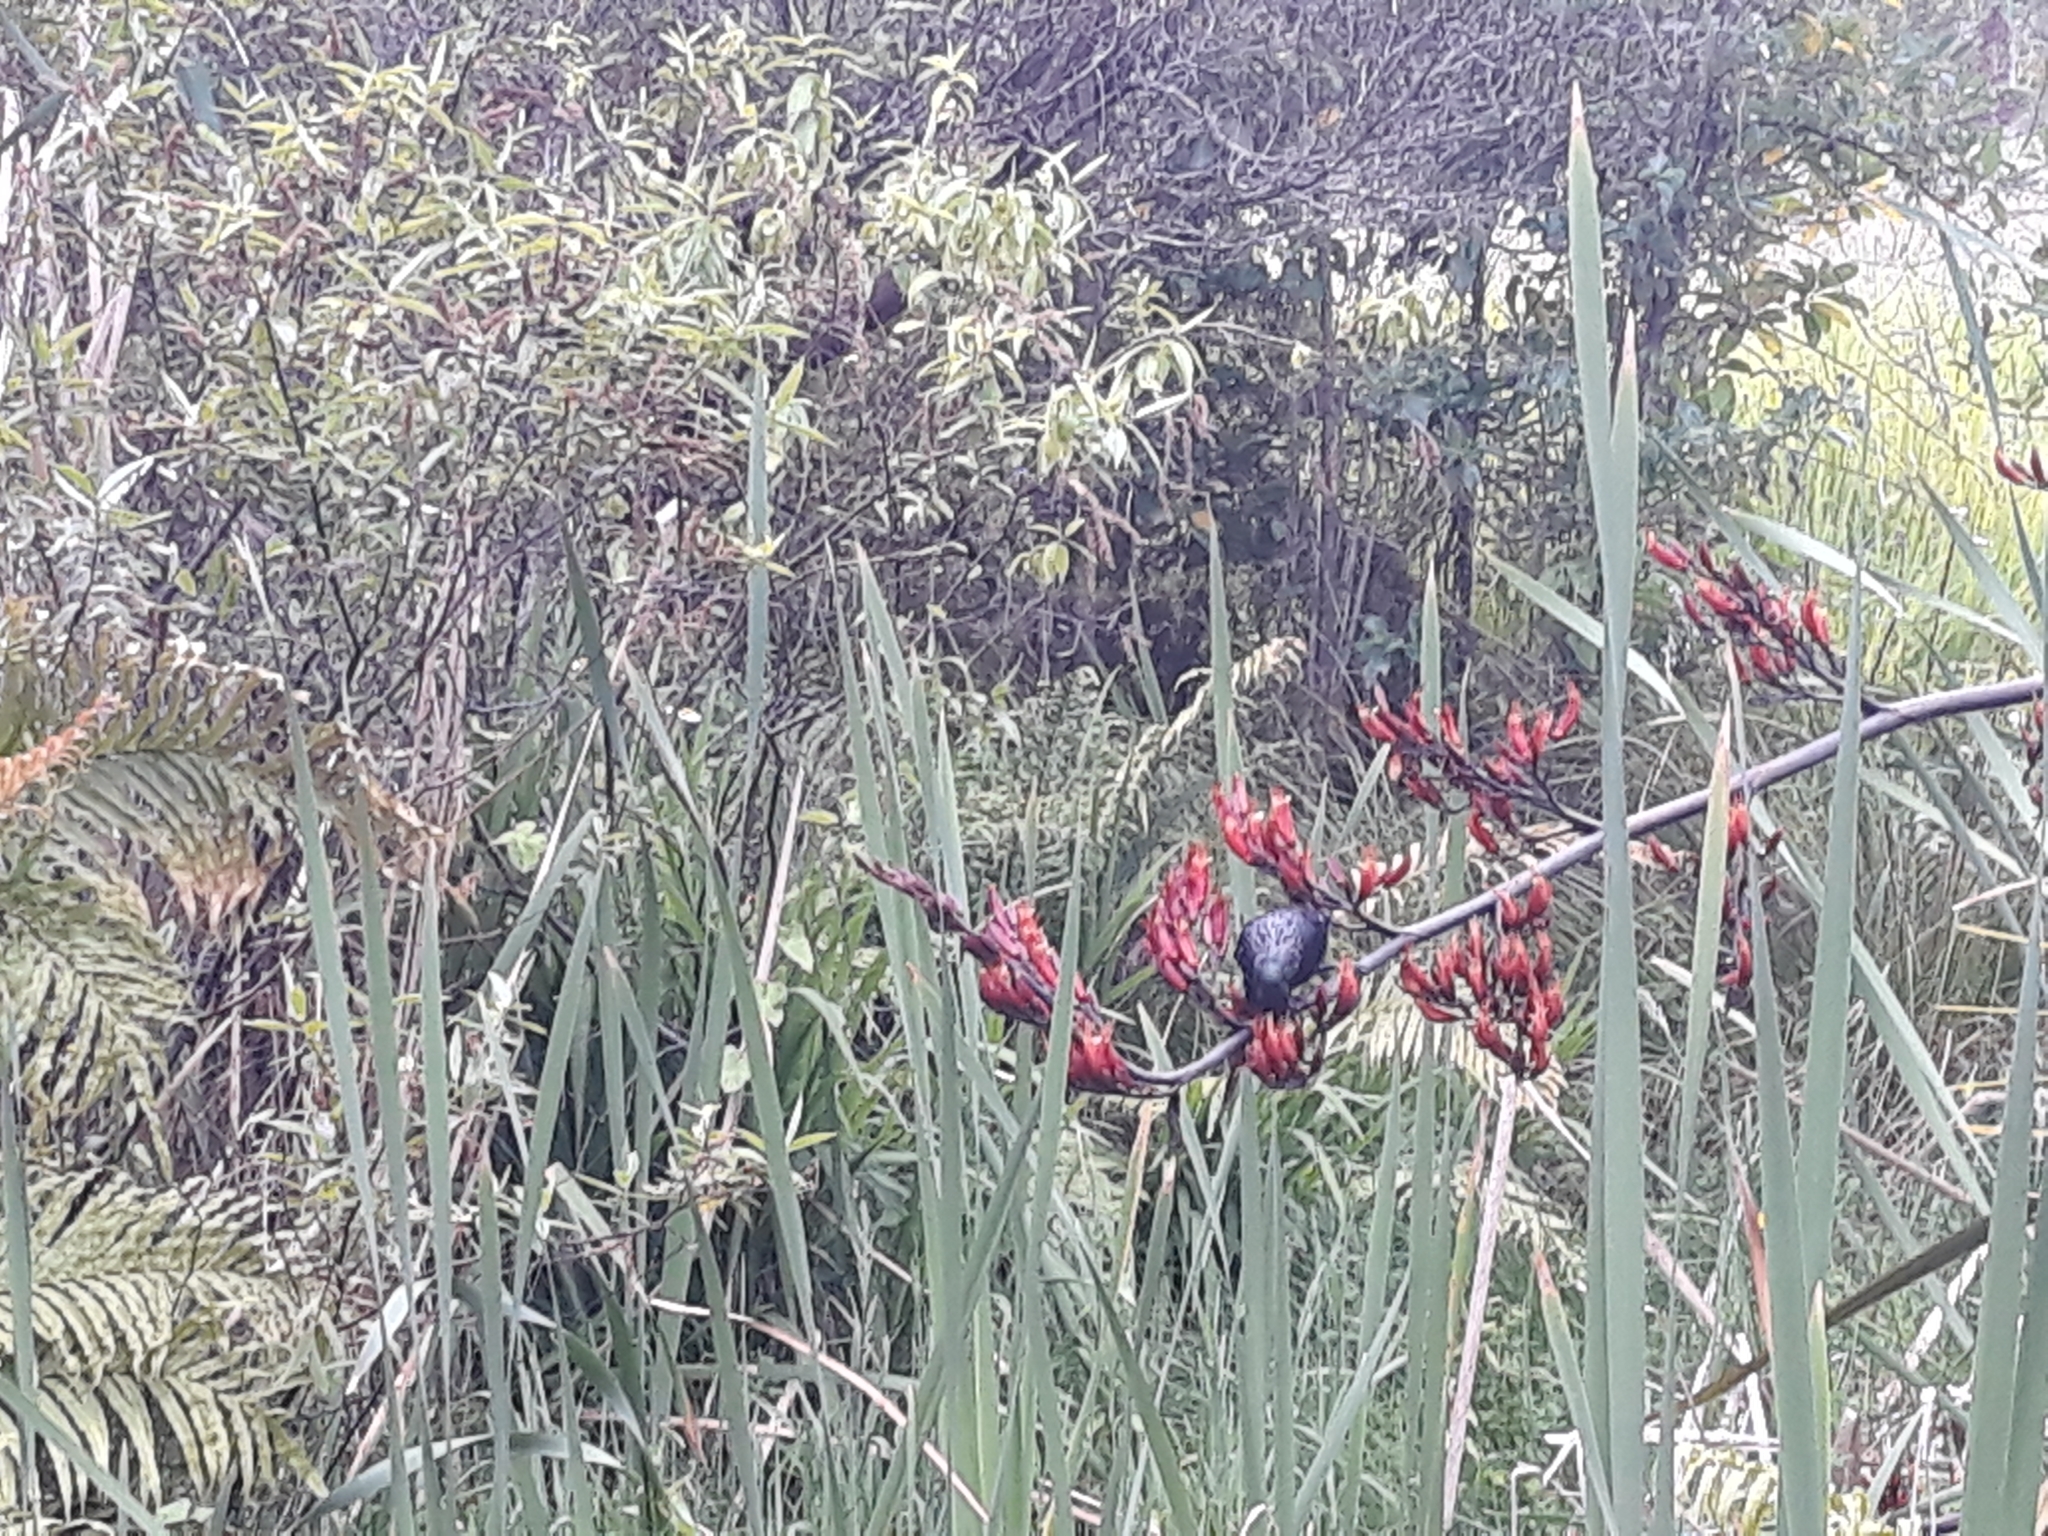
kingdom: Animalia
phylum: Chordata
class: Aves
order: Passeriformes
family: Meliphagidae
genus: Prosthemadera
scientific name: Prosthemadera novaeseelandiae
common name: Tui
